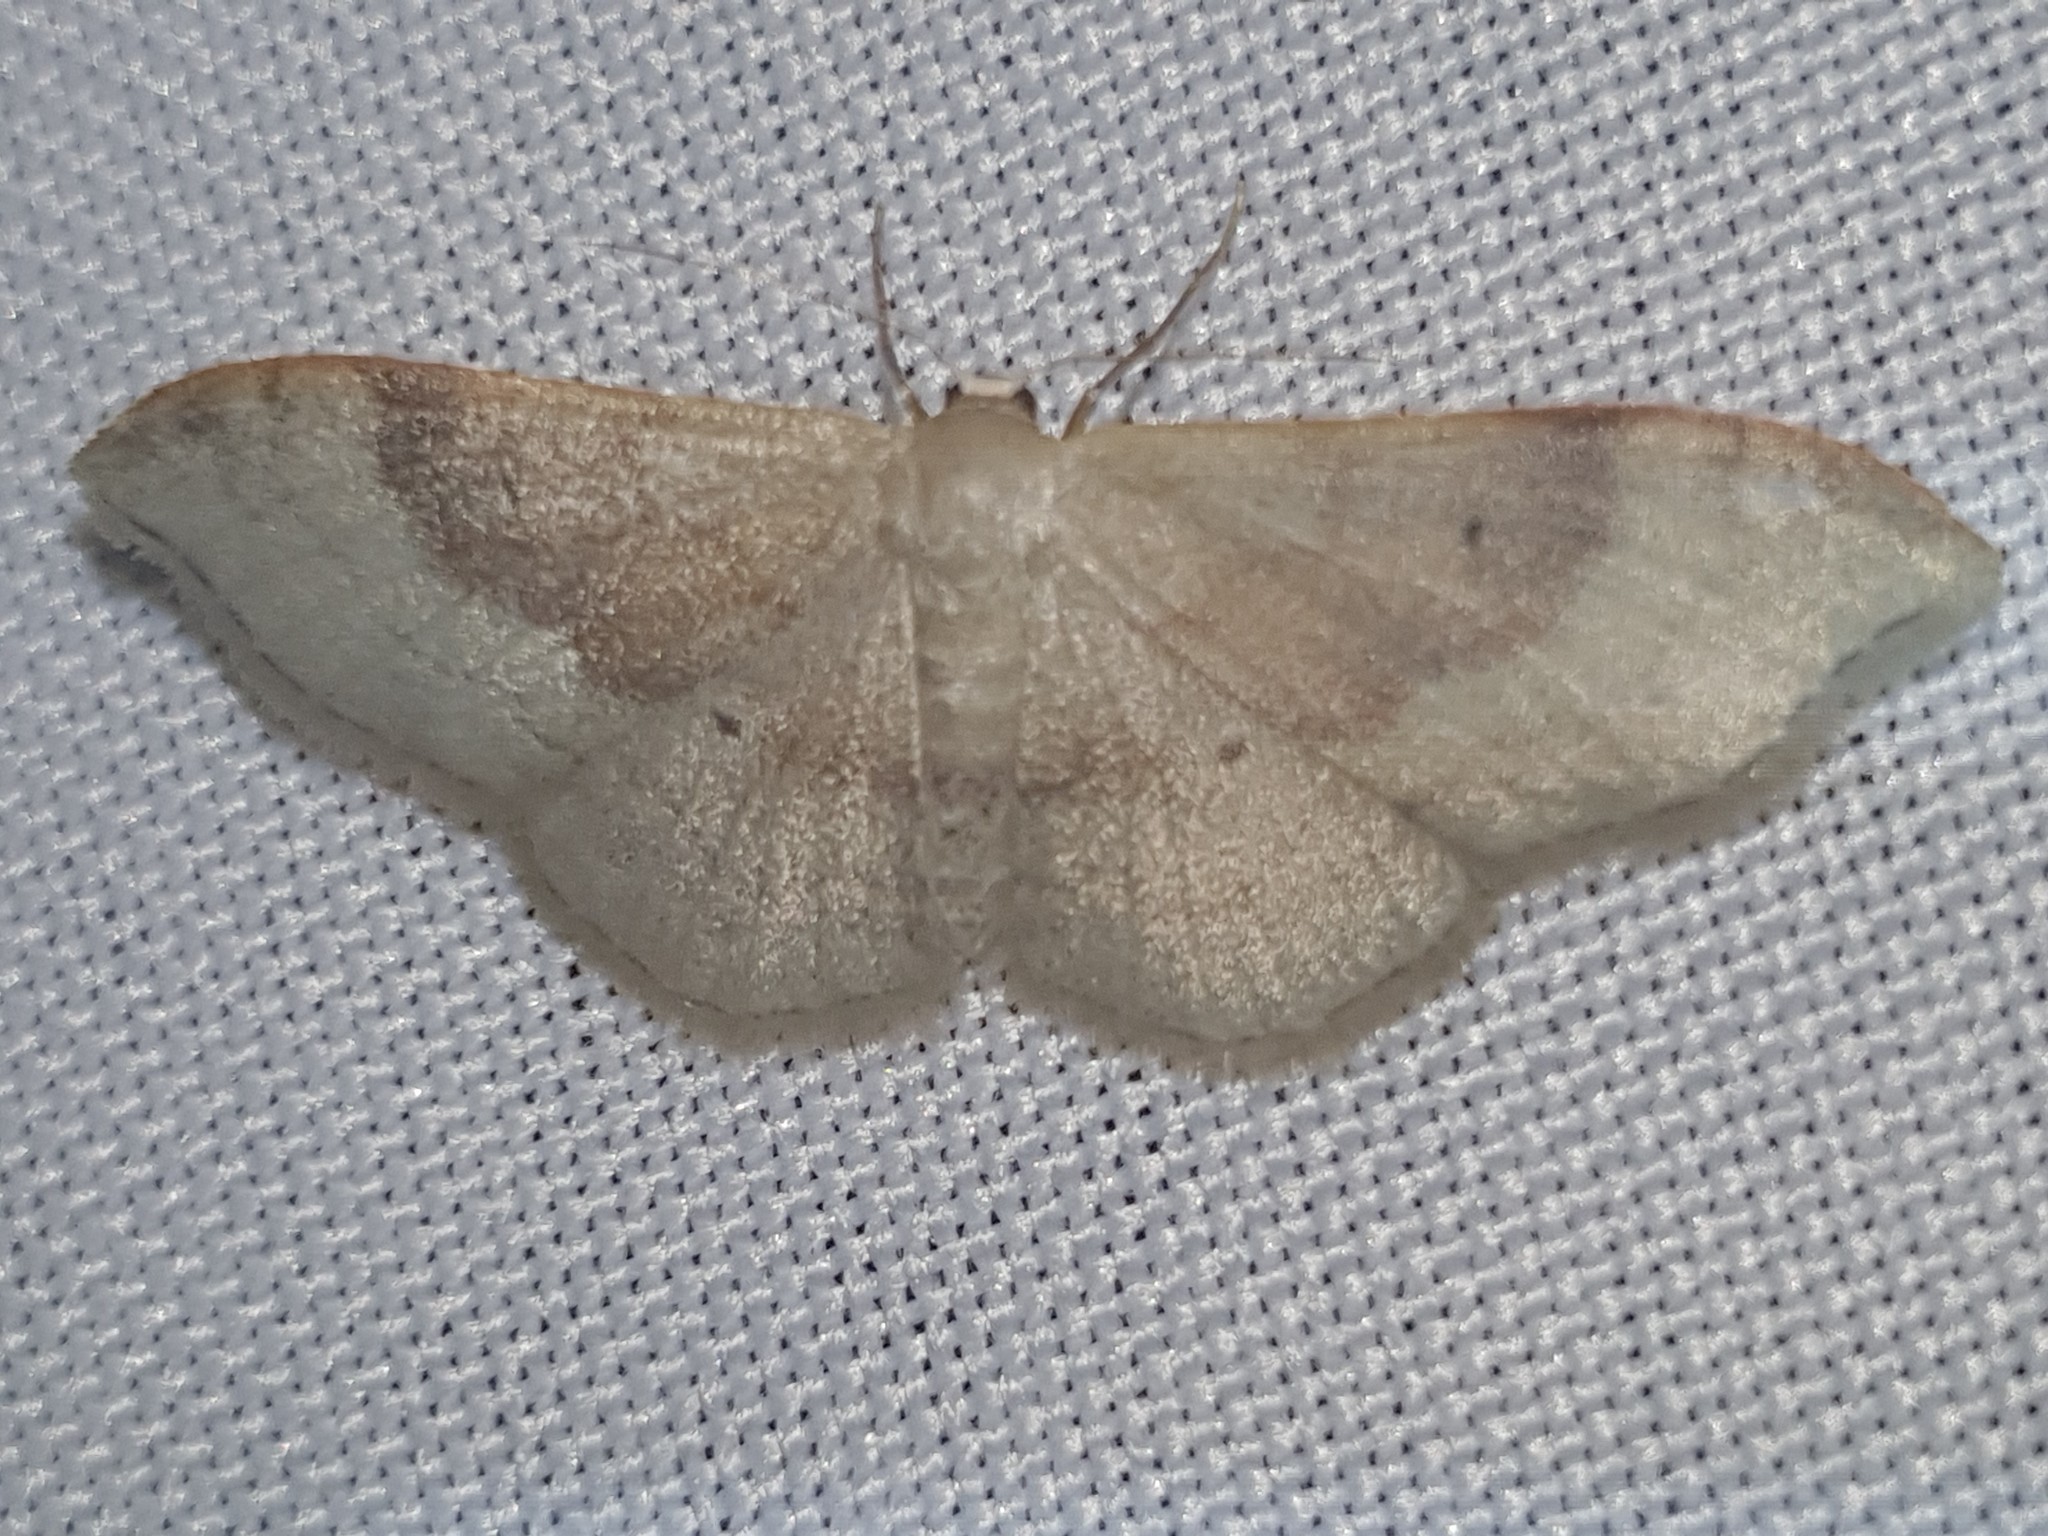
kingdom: Animalia
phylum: Arthropoda
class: Insecta
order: Lepidoptera
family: Geometridae
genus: Idaea
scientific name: Idaea degeneraria
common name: Portland ribbon wave
